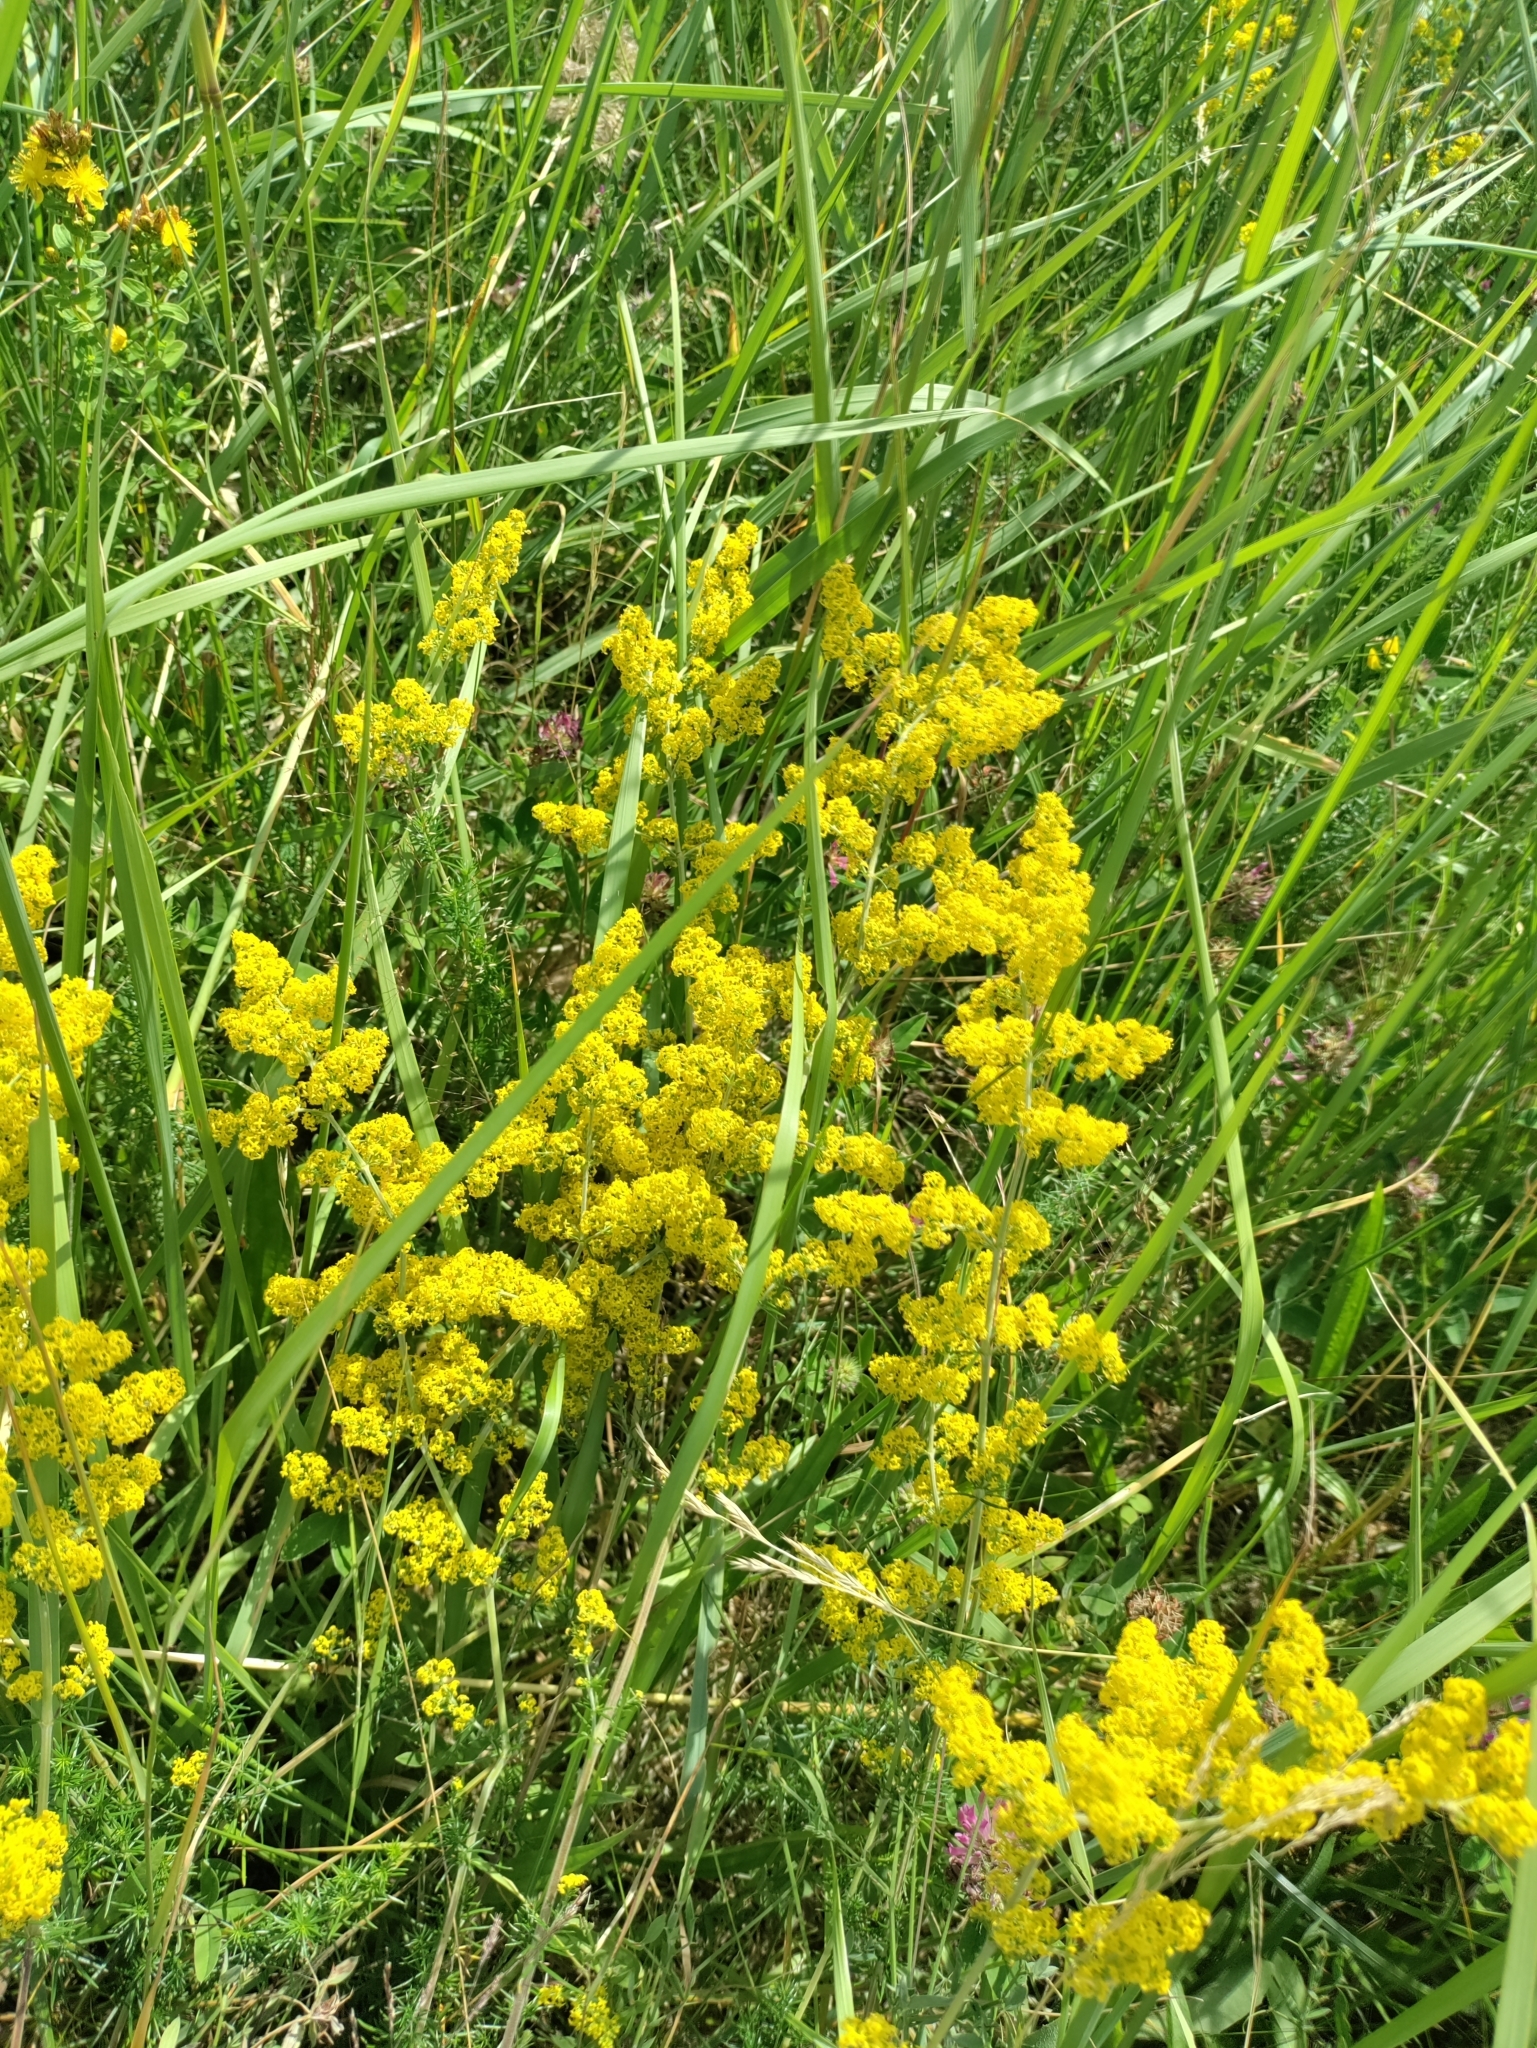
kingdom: Plantae
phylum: Tracheophyta
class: Magnoliopsida
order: Gentianales
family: Rubiaceae
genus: Galium
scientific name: Galium verum
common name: Lady's bedstraw
